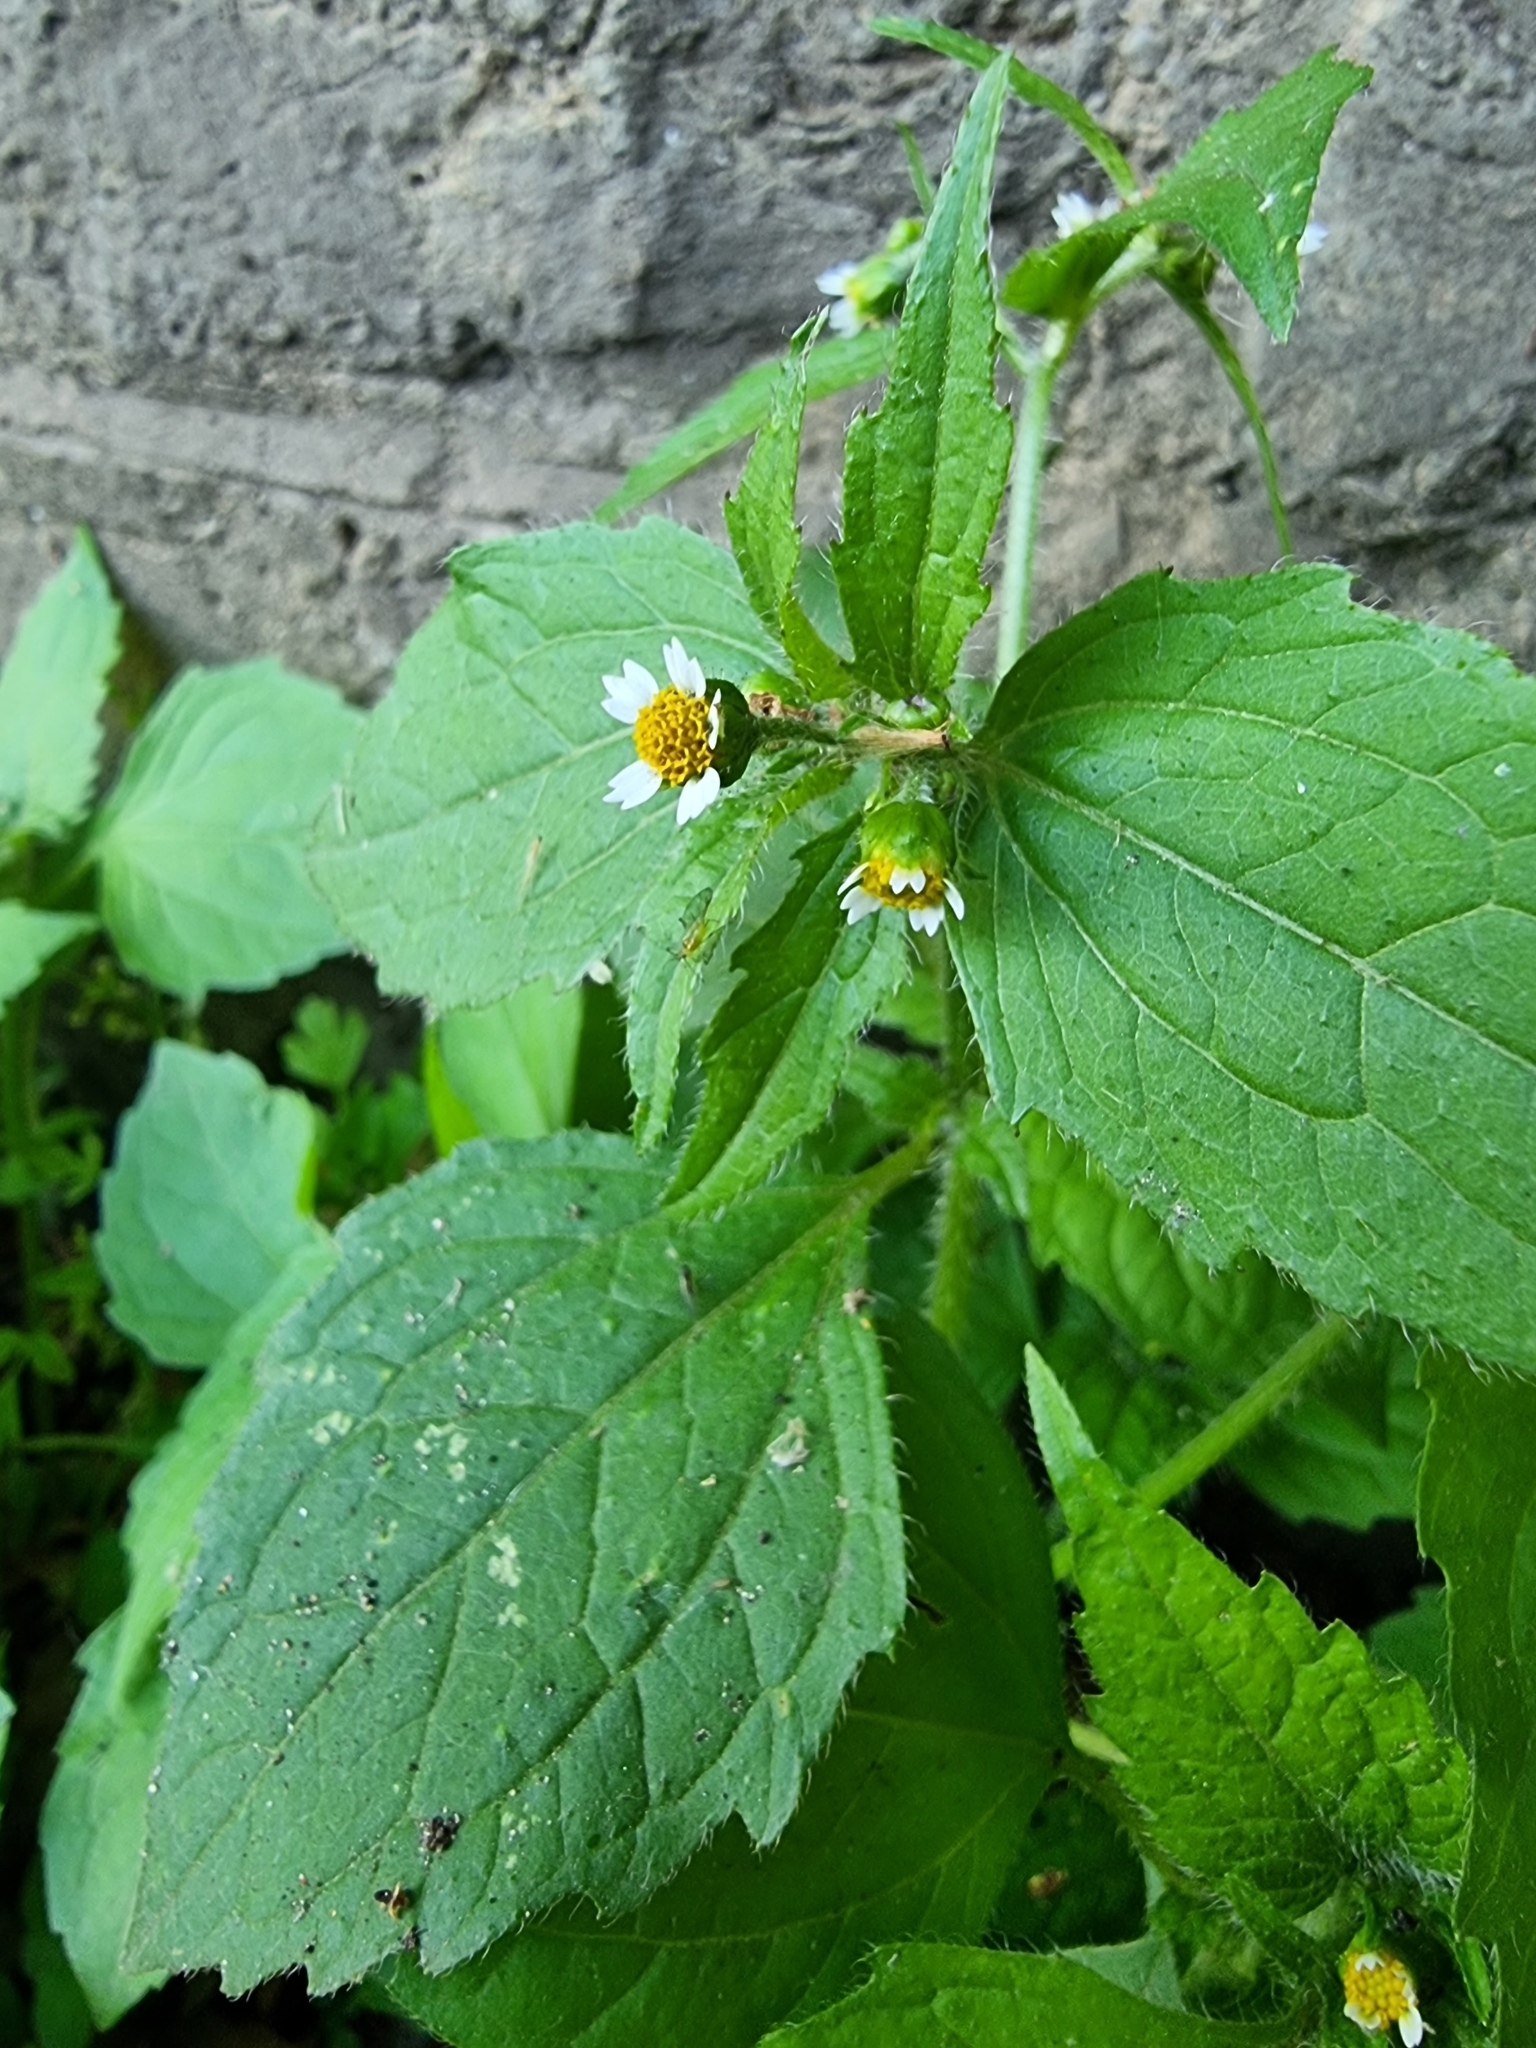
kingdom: Plantae
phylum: Tracheophyta
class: Magnoliopsida
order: Asterales
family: Asteraceae
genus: Galinsoga
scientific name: Galinsoga quadriradiata
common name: Shaggy soldier
